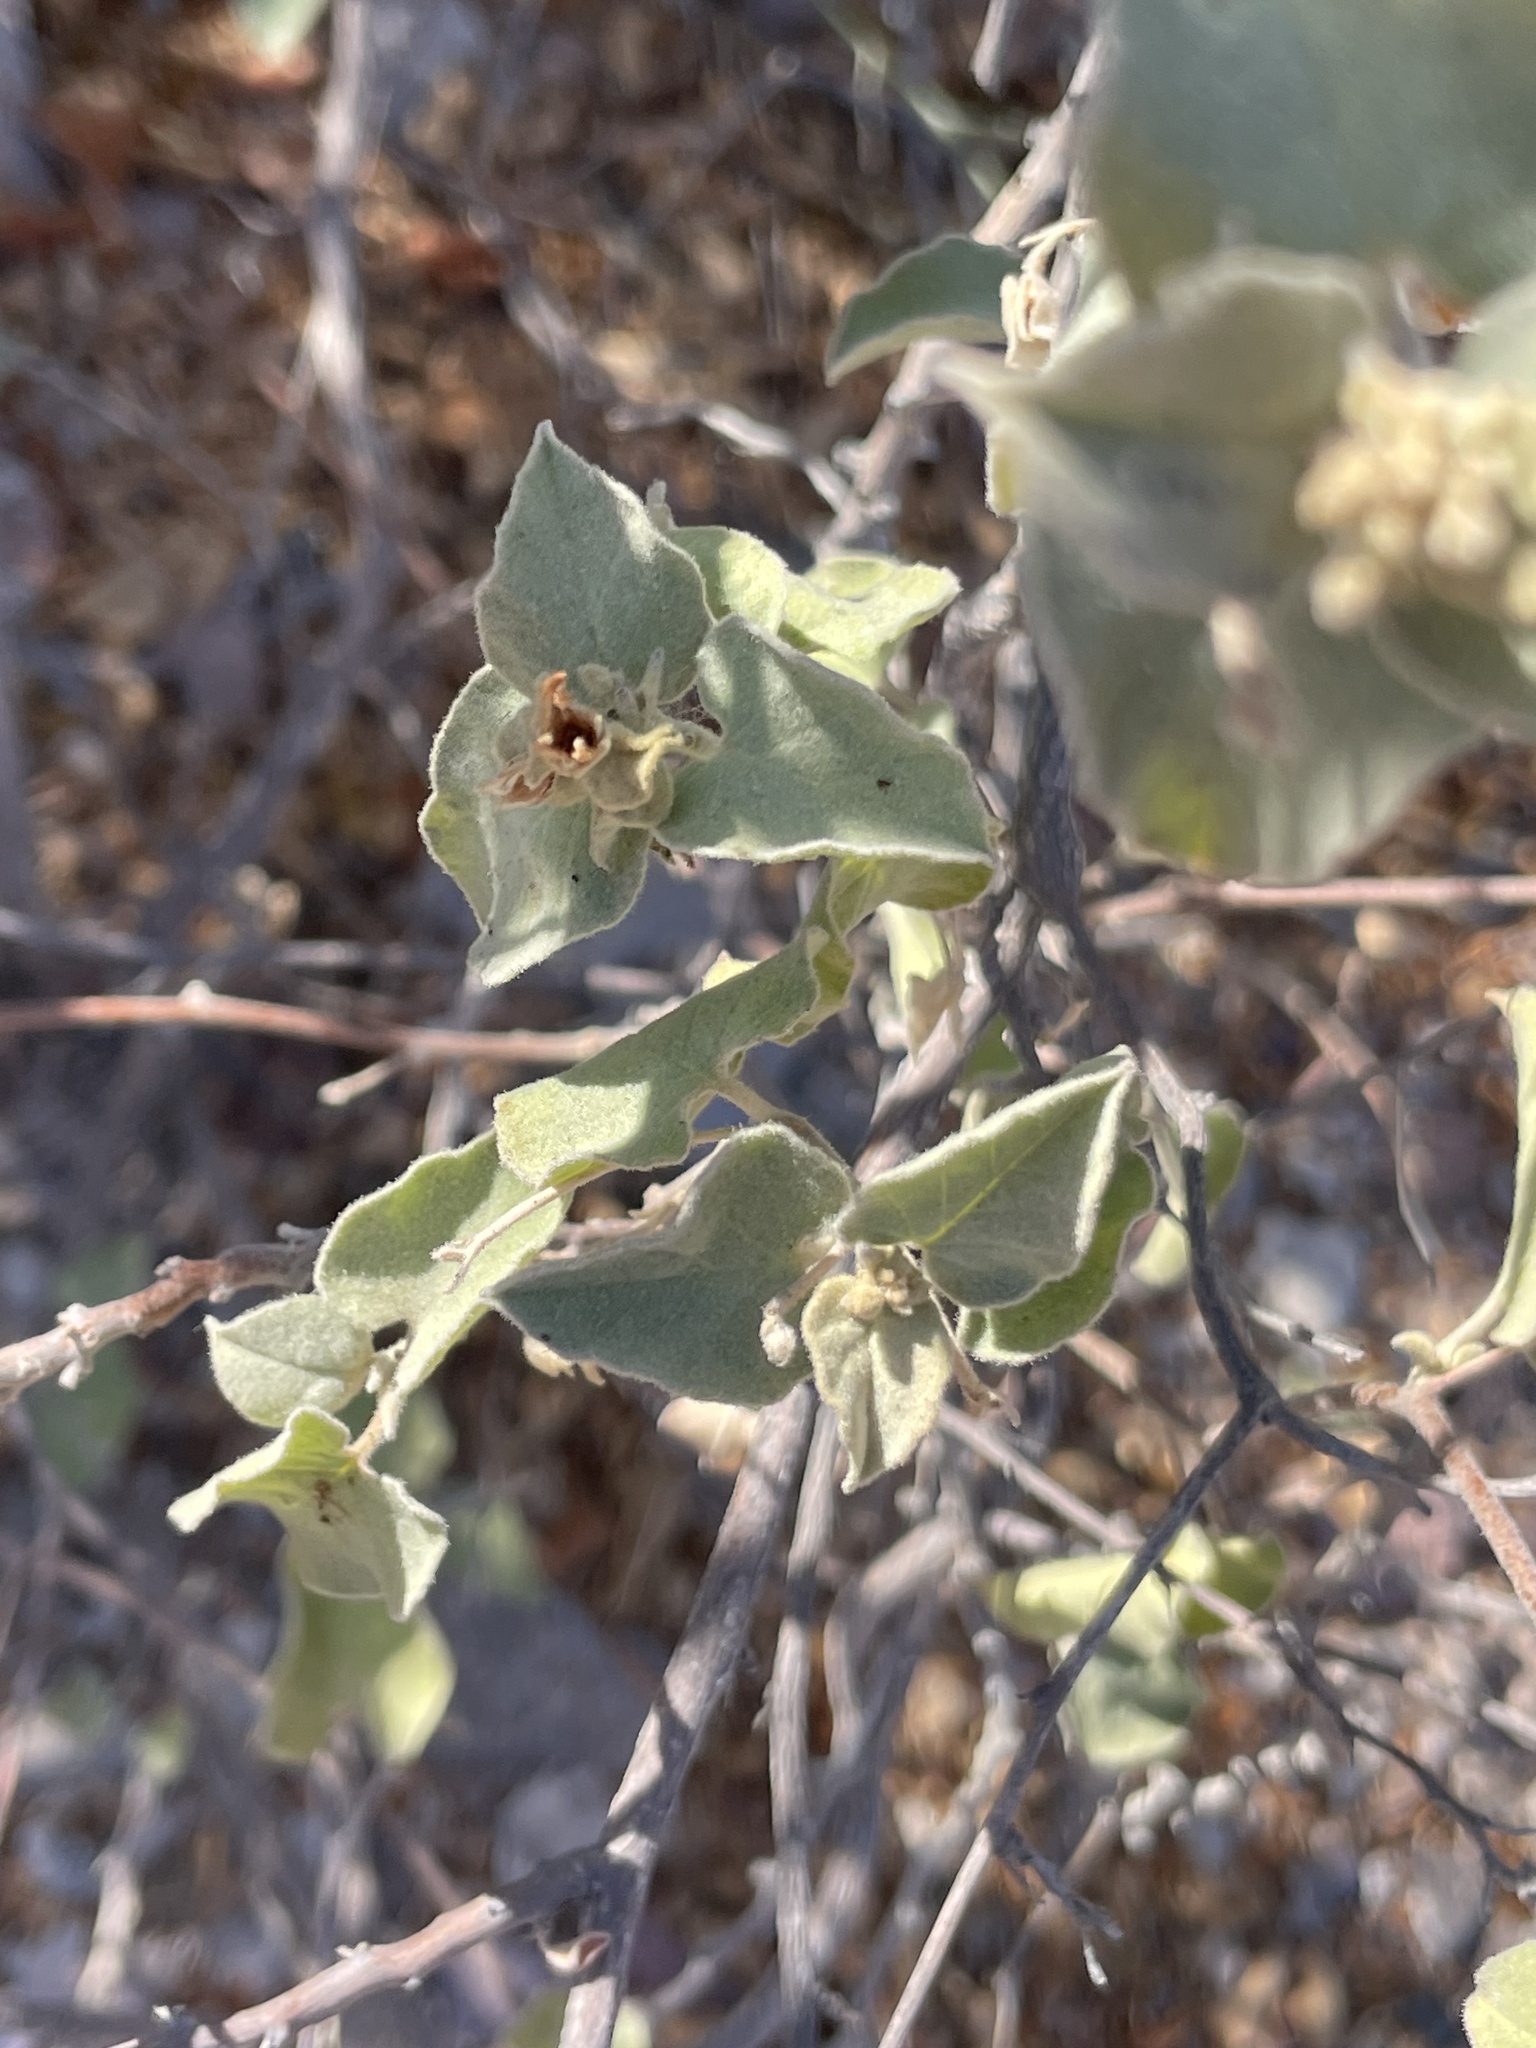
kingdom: Plantae
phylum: Tracheophyta
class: Magnoliopsida
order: Solanales
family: Convolvulaceae
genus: Jacquemontia
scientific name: Jacquemontia abutiloides
